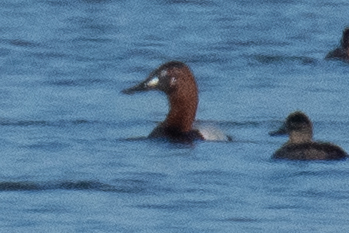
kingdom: Animalia
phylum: Chordata
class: Aves
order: Anseriformes
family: Anatidae
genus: Aythya
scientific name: Aythya valisineria
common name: Canvasback
